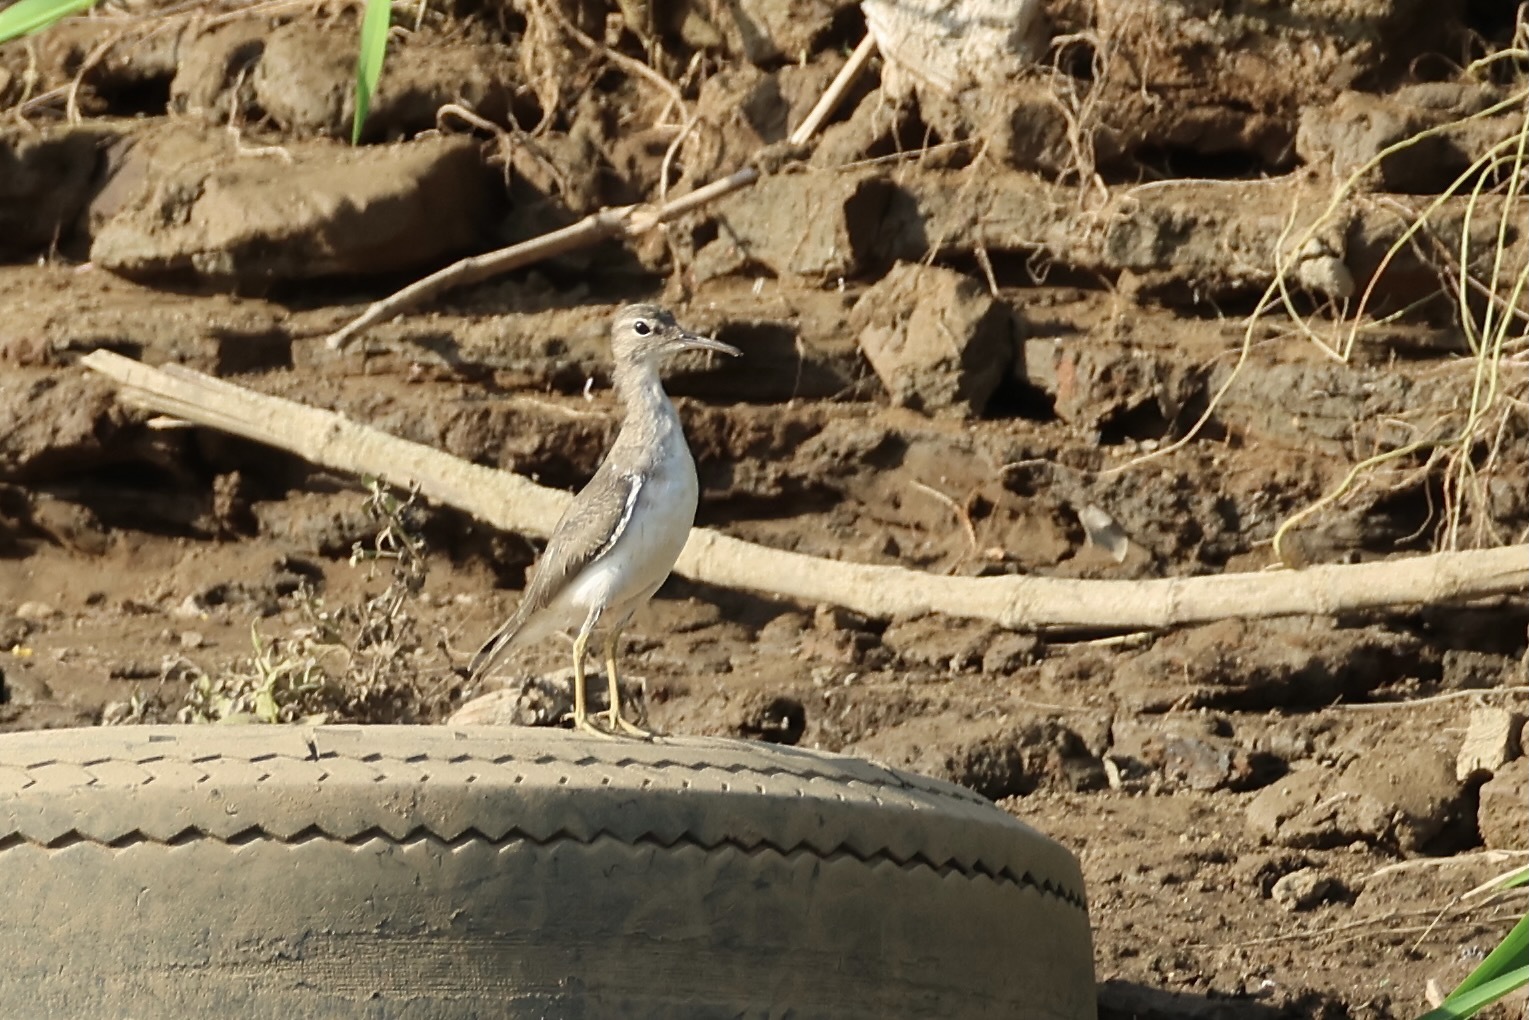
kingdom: Animalia
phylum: Chordata
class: Aves
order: Charadriiformes
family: Scolopacidae
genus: Actitis
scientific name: Actitis macularius
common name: Spotted sandpiper
